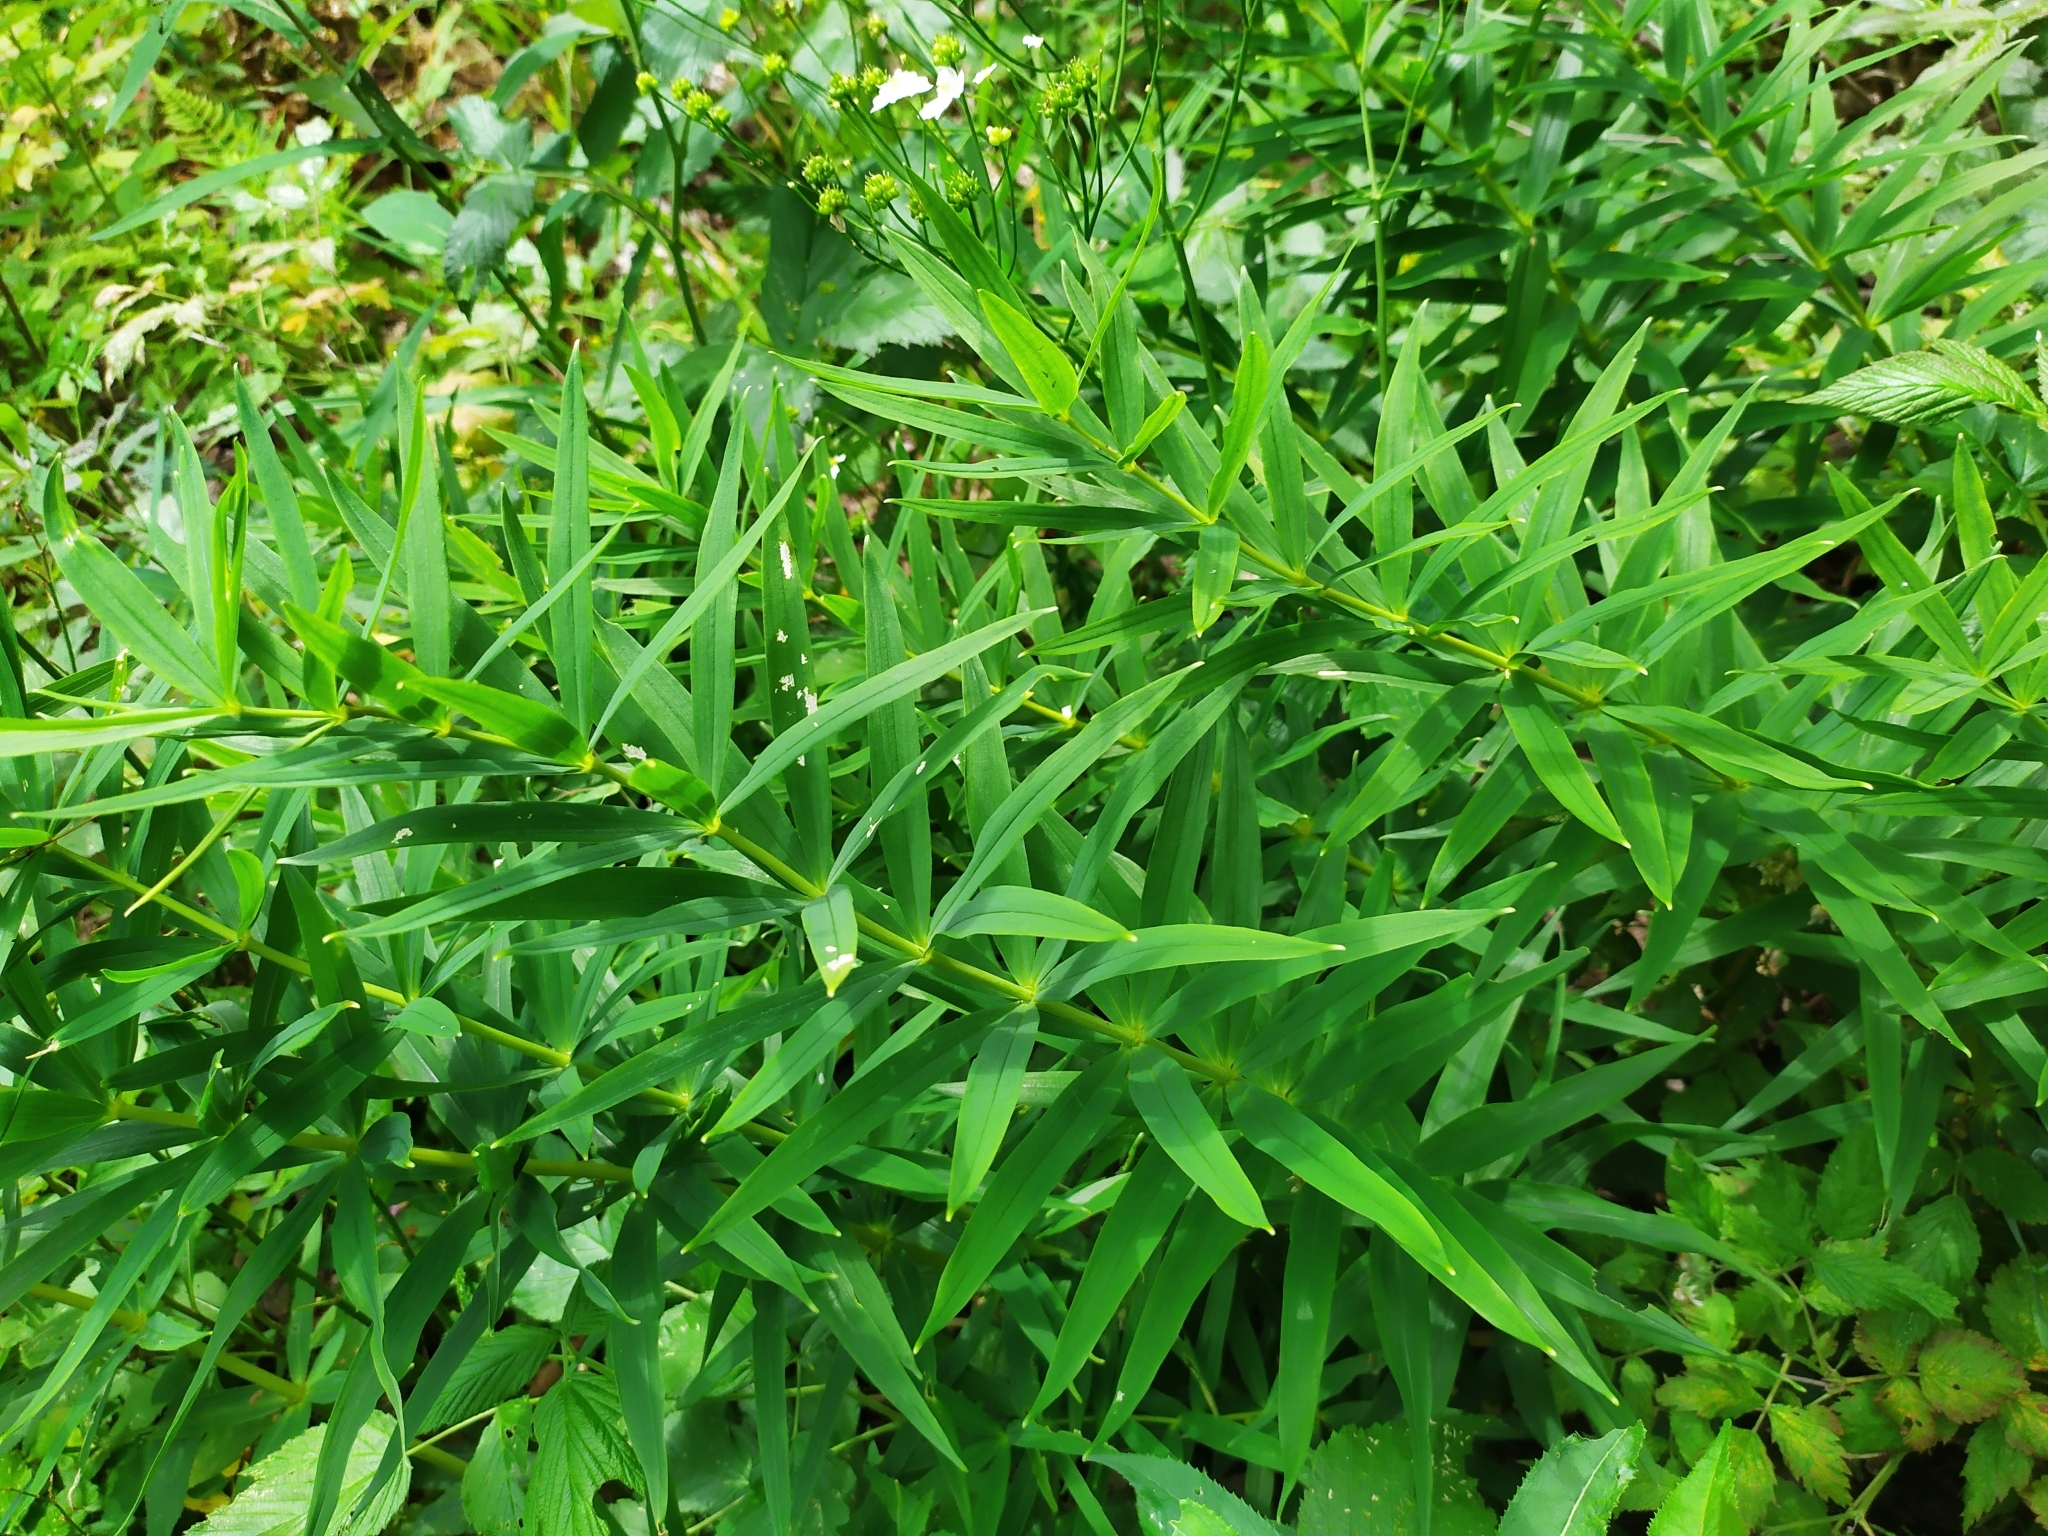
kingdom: Plantae
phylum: Tracheophyta
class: Liliopsida
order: Asparagales
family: Asparagaceae
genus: Polygonatum
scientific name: Polygonatum verticillatum
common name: Whorled solomon's-seal
